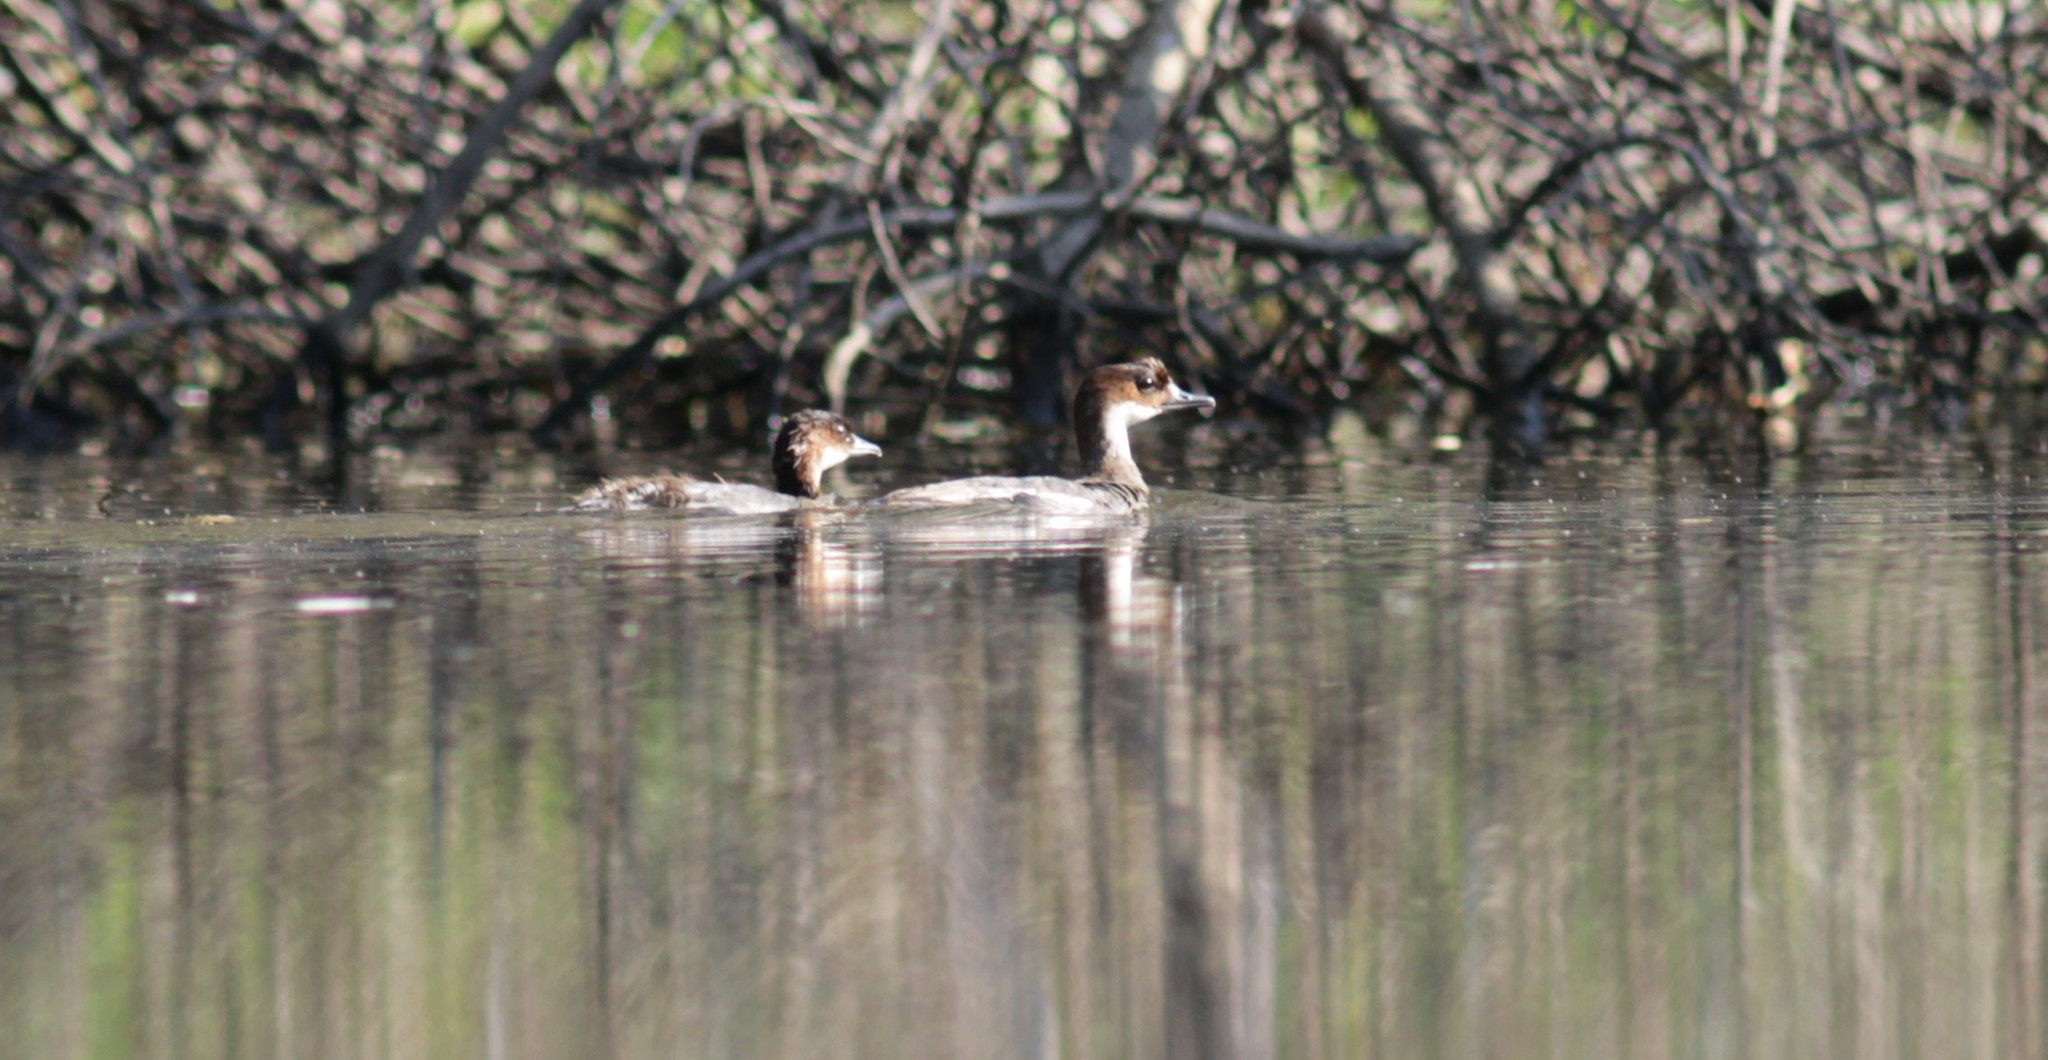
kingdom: Animalia
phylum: Chordata
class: Aves
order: Anseriformes
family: Anatidae
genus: Mergellus
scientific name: Mergellus albellus
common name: Smew
